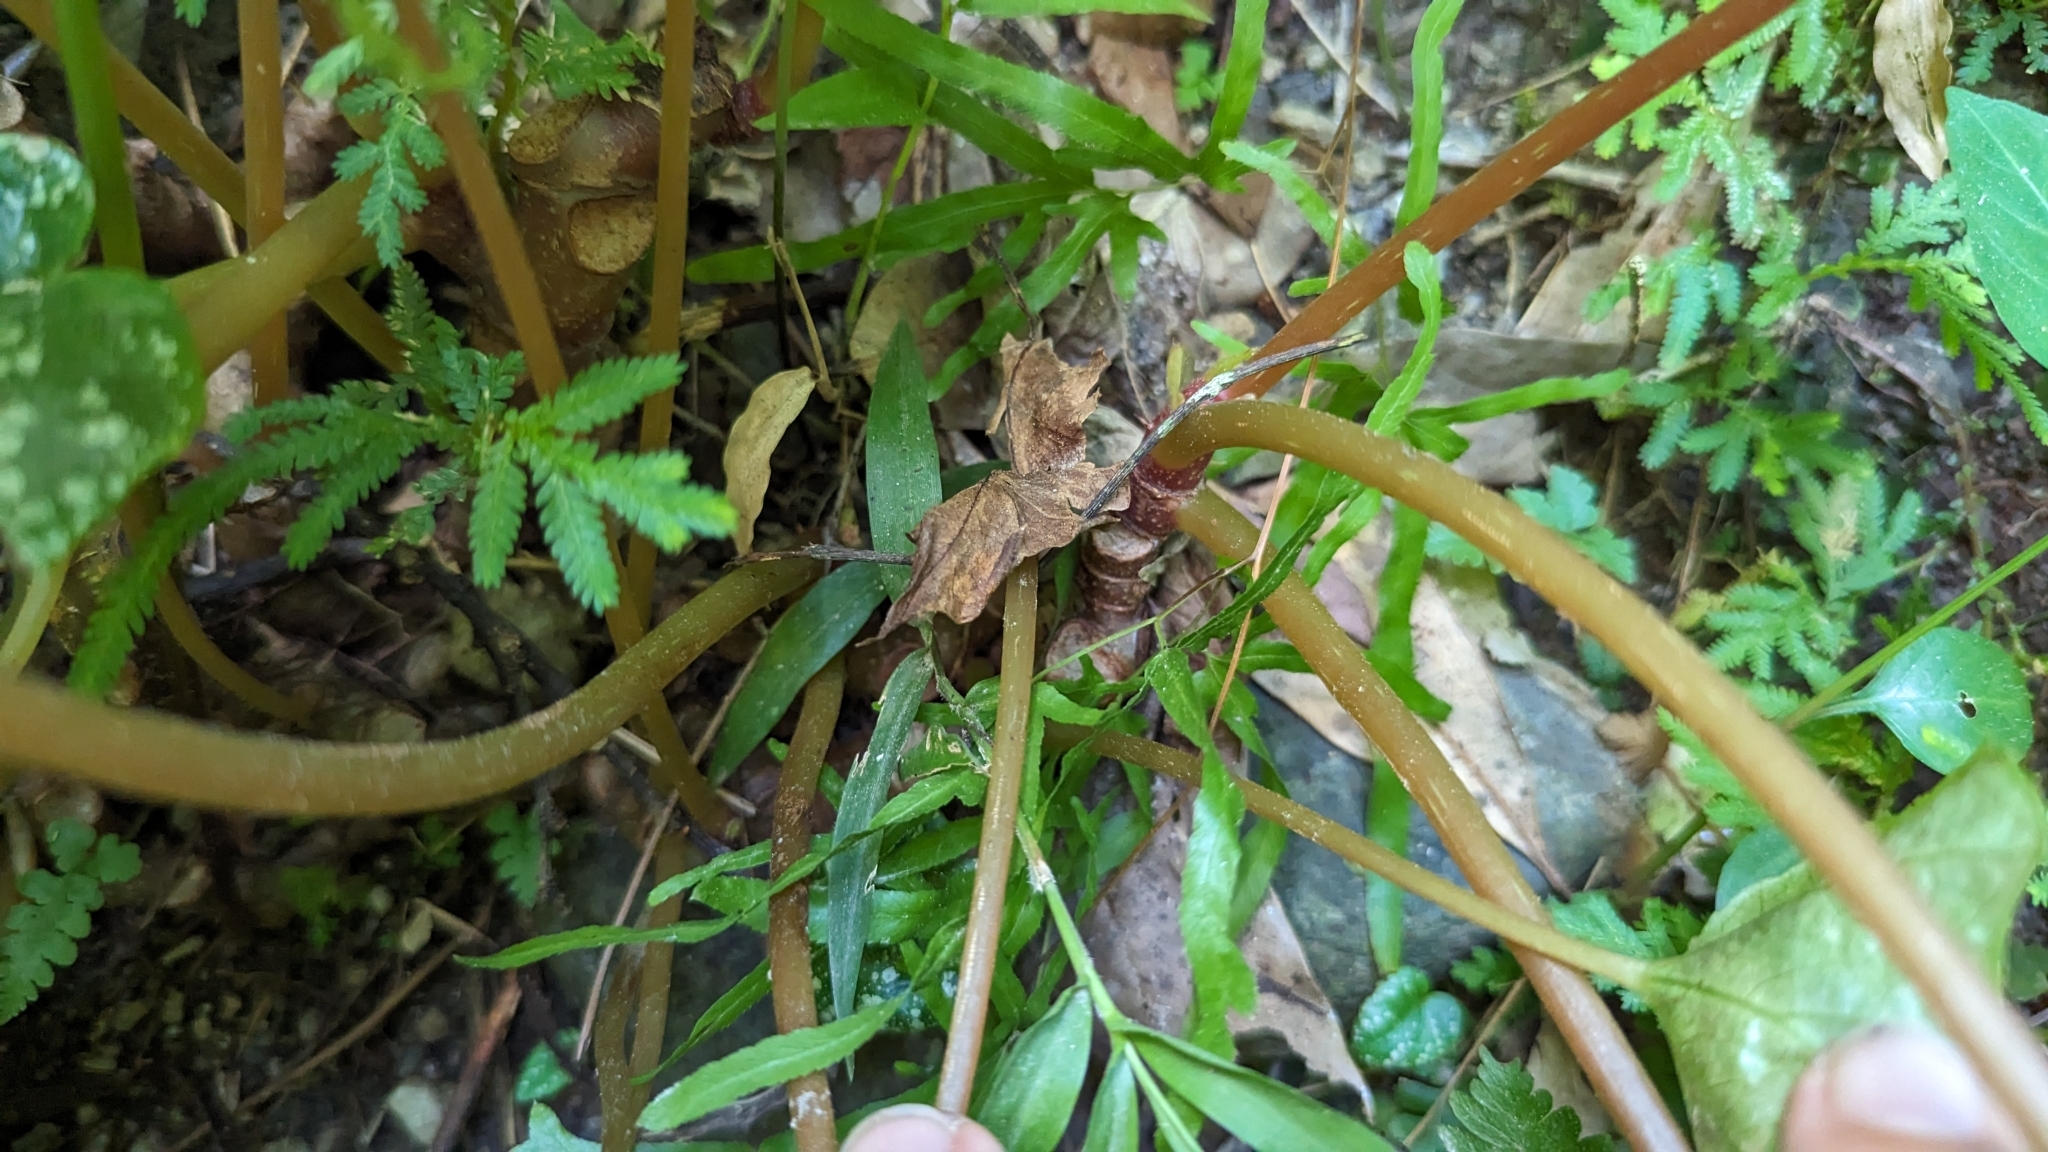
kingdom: Plantae
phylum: Tracheophyta
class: Magnoliopsida
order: Cucurbitales
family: Begoniaceae
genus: Begonia
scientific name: Begonia formosana
